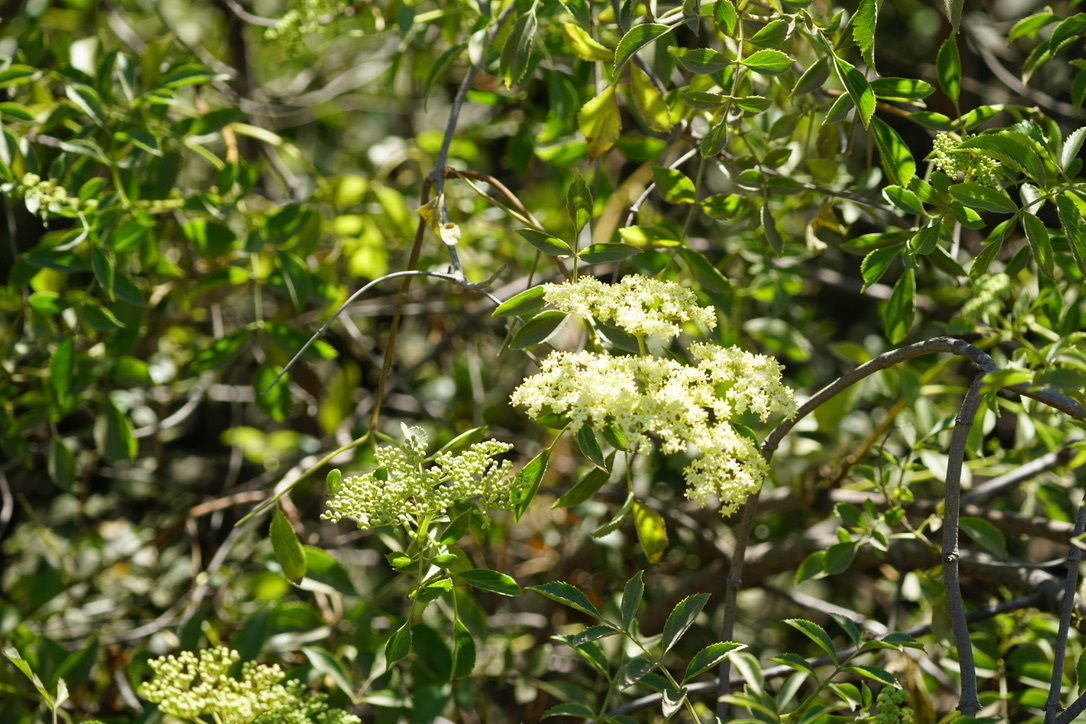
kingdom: Plantae
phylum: Tracheophyta
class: Magnoliopsida
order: Dipsacales
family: Viburnaceae
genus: Sambucus
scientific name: Sambucus cerulea
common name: Blue elder
